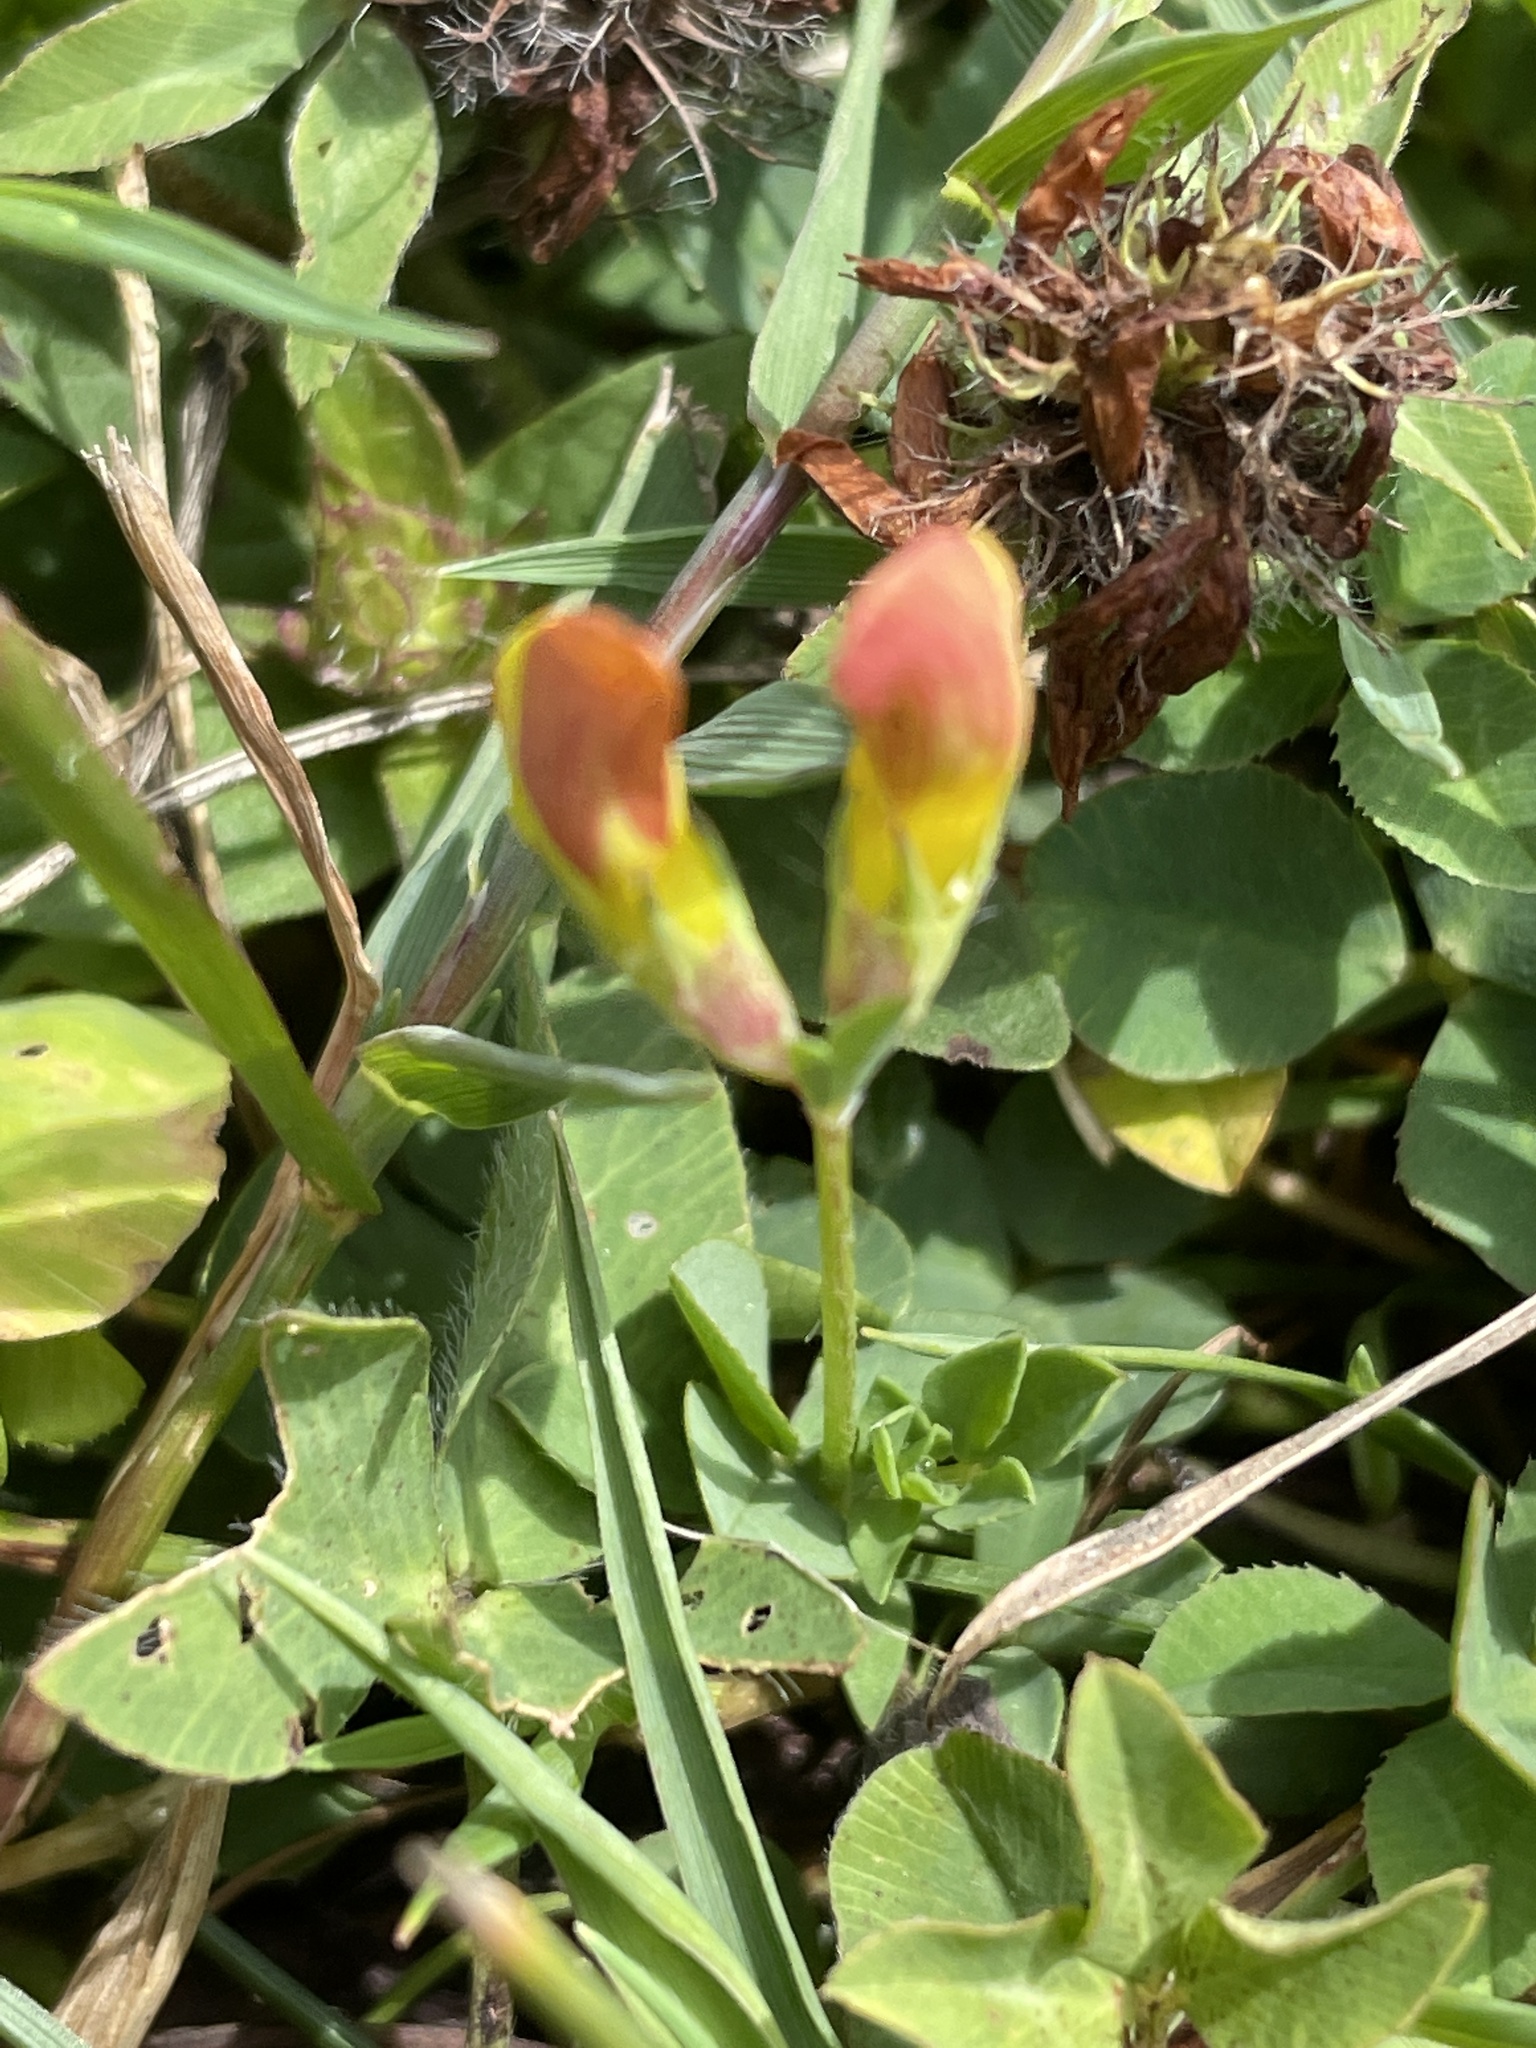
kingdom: Plantae
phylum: Tracheophyta
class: Magnoliopsida
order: Fabales
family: Fabaceae
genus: Lotus
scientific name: Lotus corniculatus
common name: Common bird's-foot-trefoil
